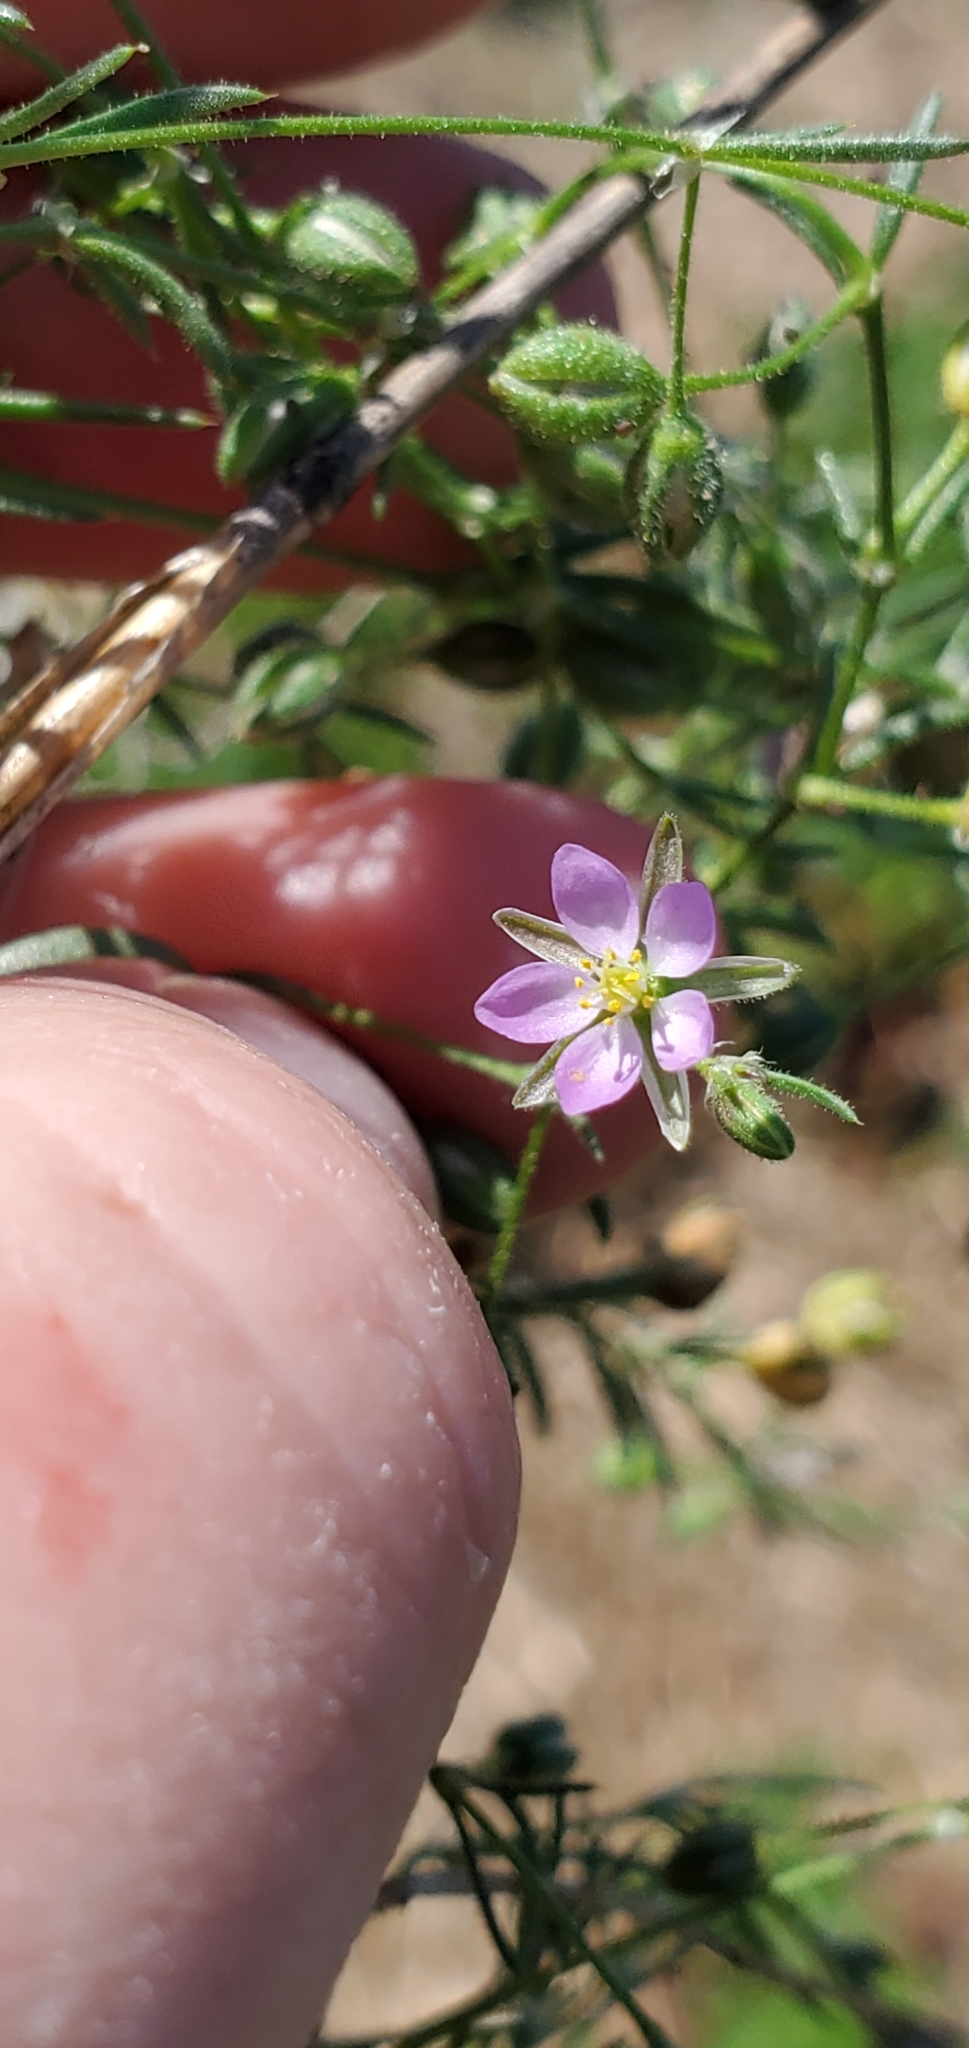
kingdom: Plantae
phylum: Tracheophyta
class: Magnoliopsida
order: Caryophyllales
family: Caryophyllaceae
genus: Spergularia
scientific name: Spergularia rubra
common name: Red sand-spurrey
